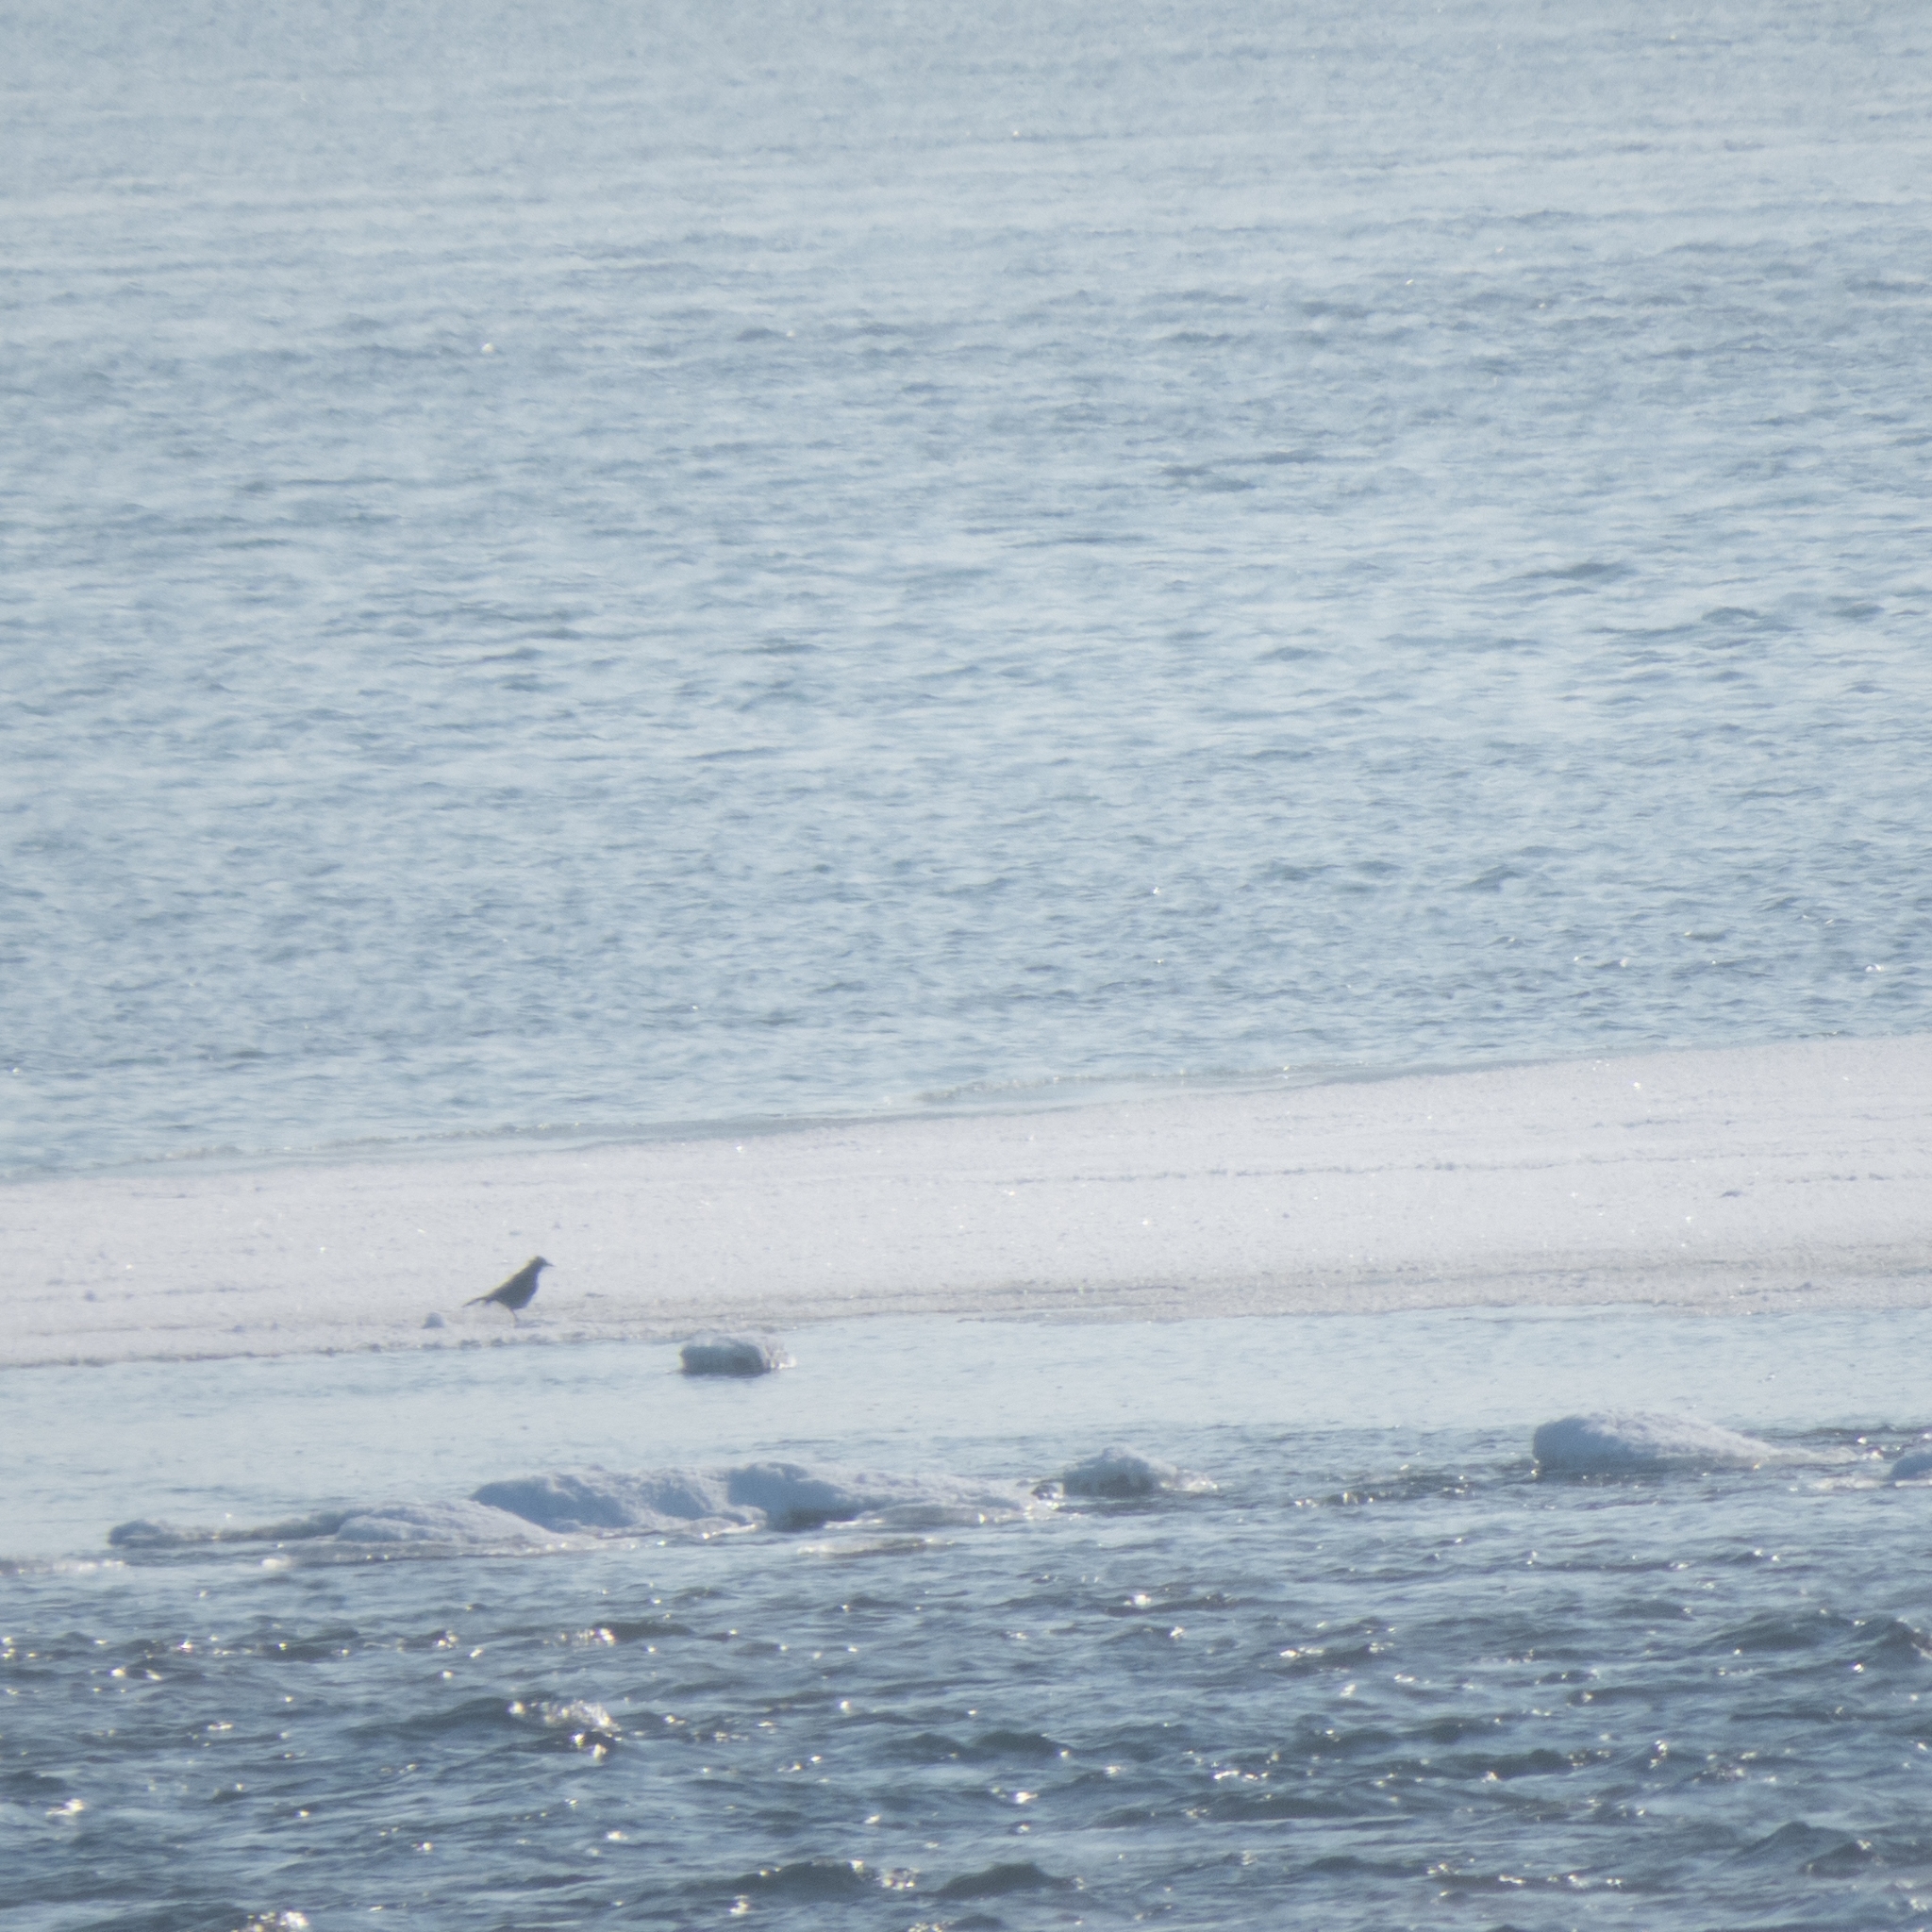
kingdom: Animalia
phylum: Chordata
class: Aves
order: Passeriformes
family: Turdidae
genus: Turdus
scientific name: Turdus
